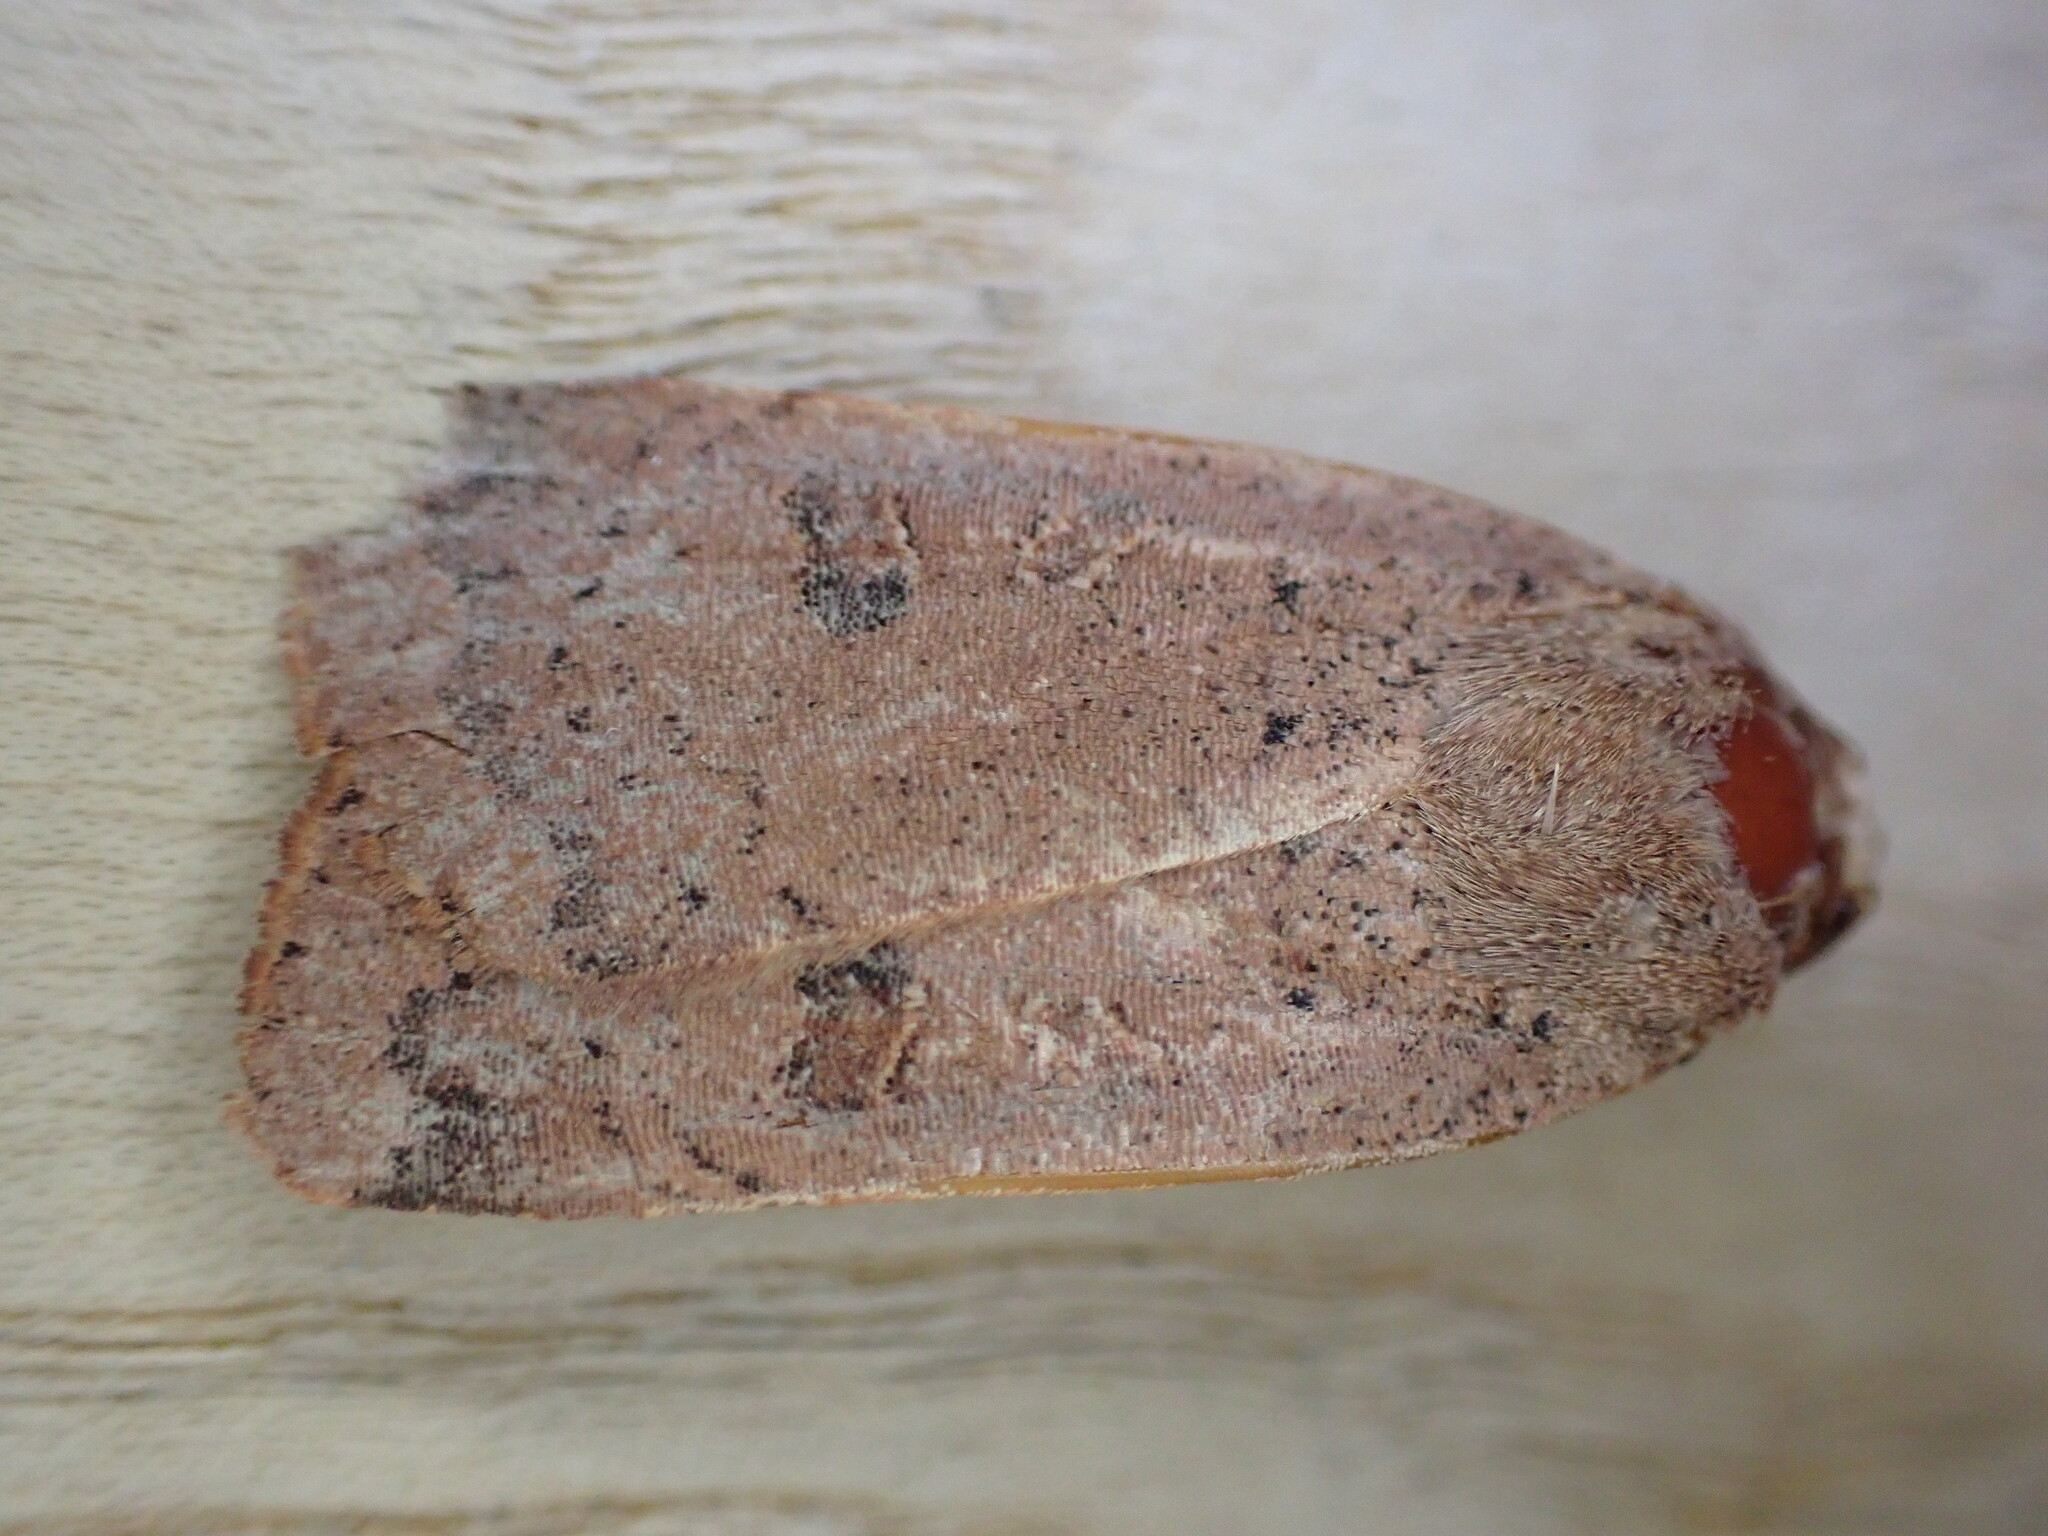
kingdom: Animalia
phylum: Arthropoda
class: Insecta
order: Lepidoptera
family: Noctuidae
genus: Noctua
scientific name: Noctua comes
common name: Lesser yellow underwing
